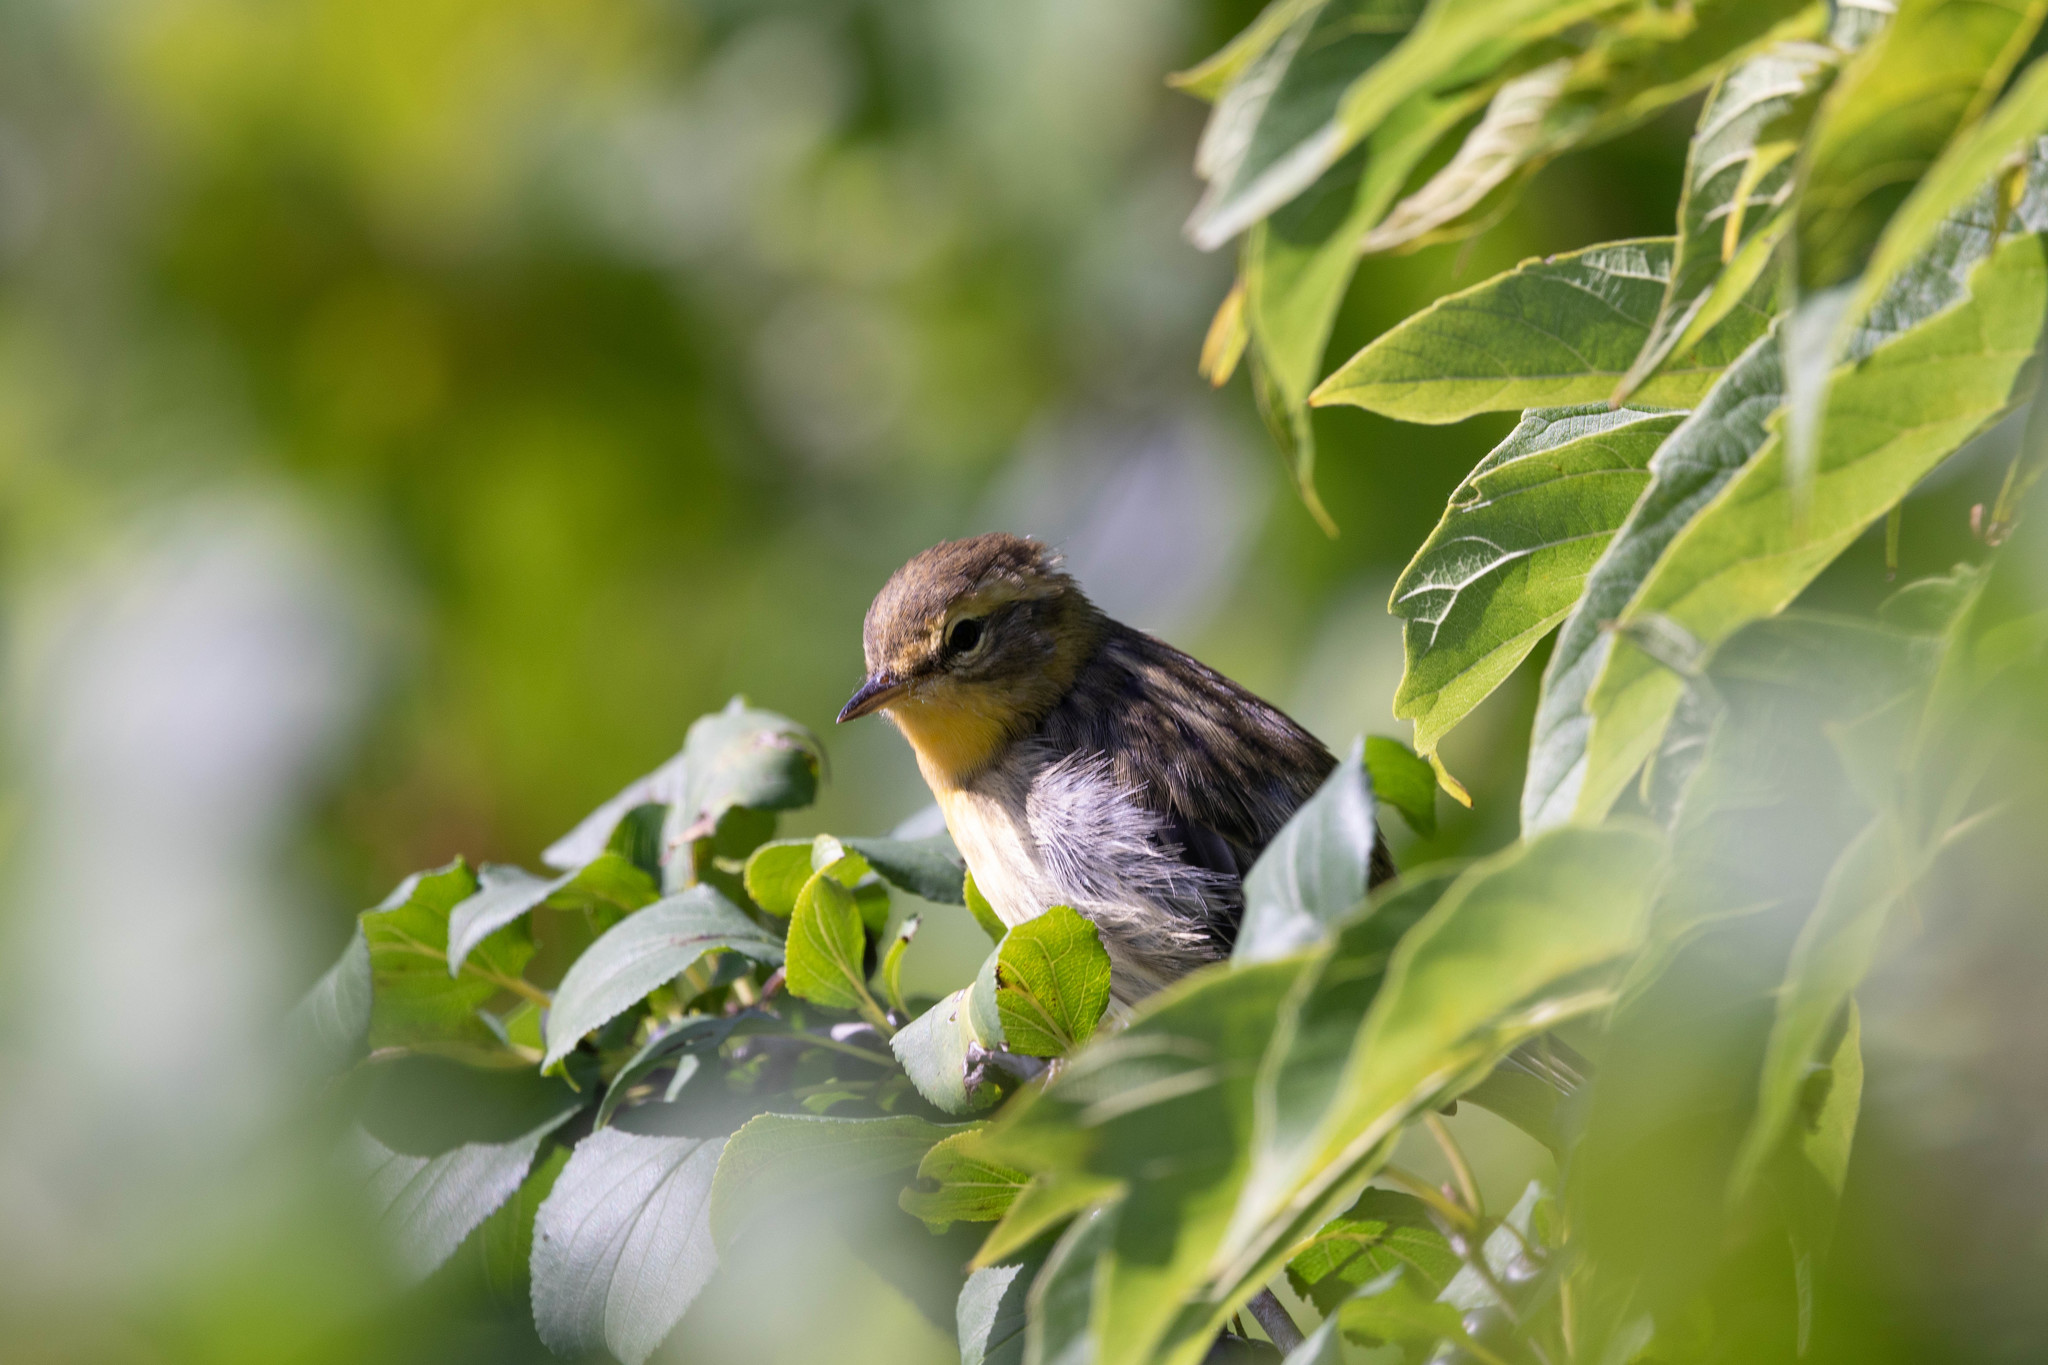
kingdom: Animalia
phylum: Chordata
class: Aves
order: Passeriformes
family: Parulidae
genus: Setophaga
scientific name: Setophaga fusca
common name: Blackburnian warbler
